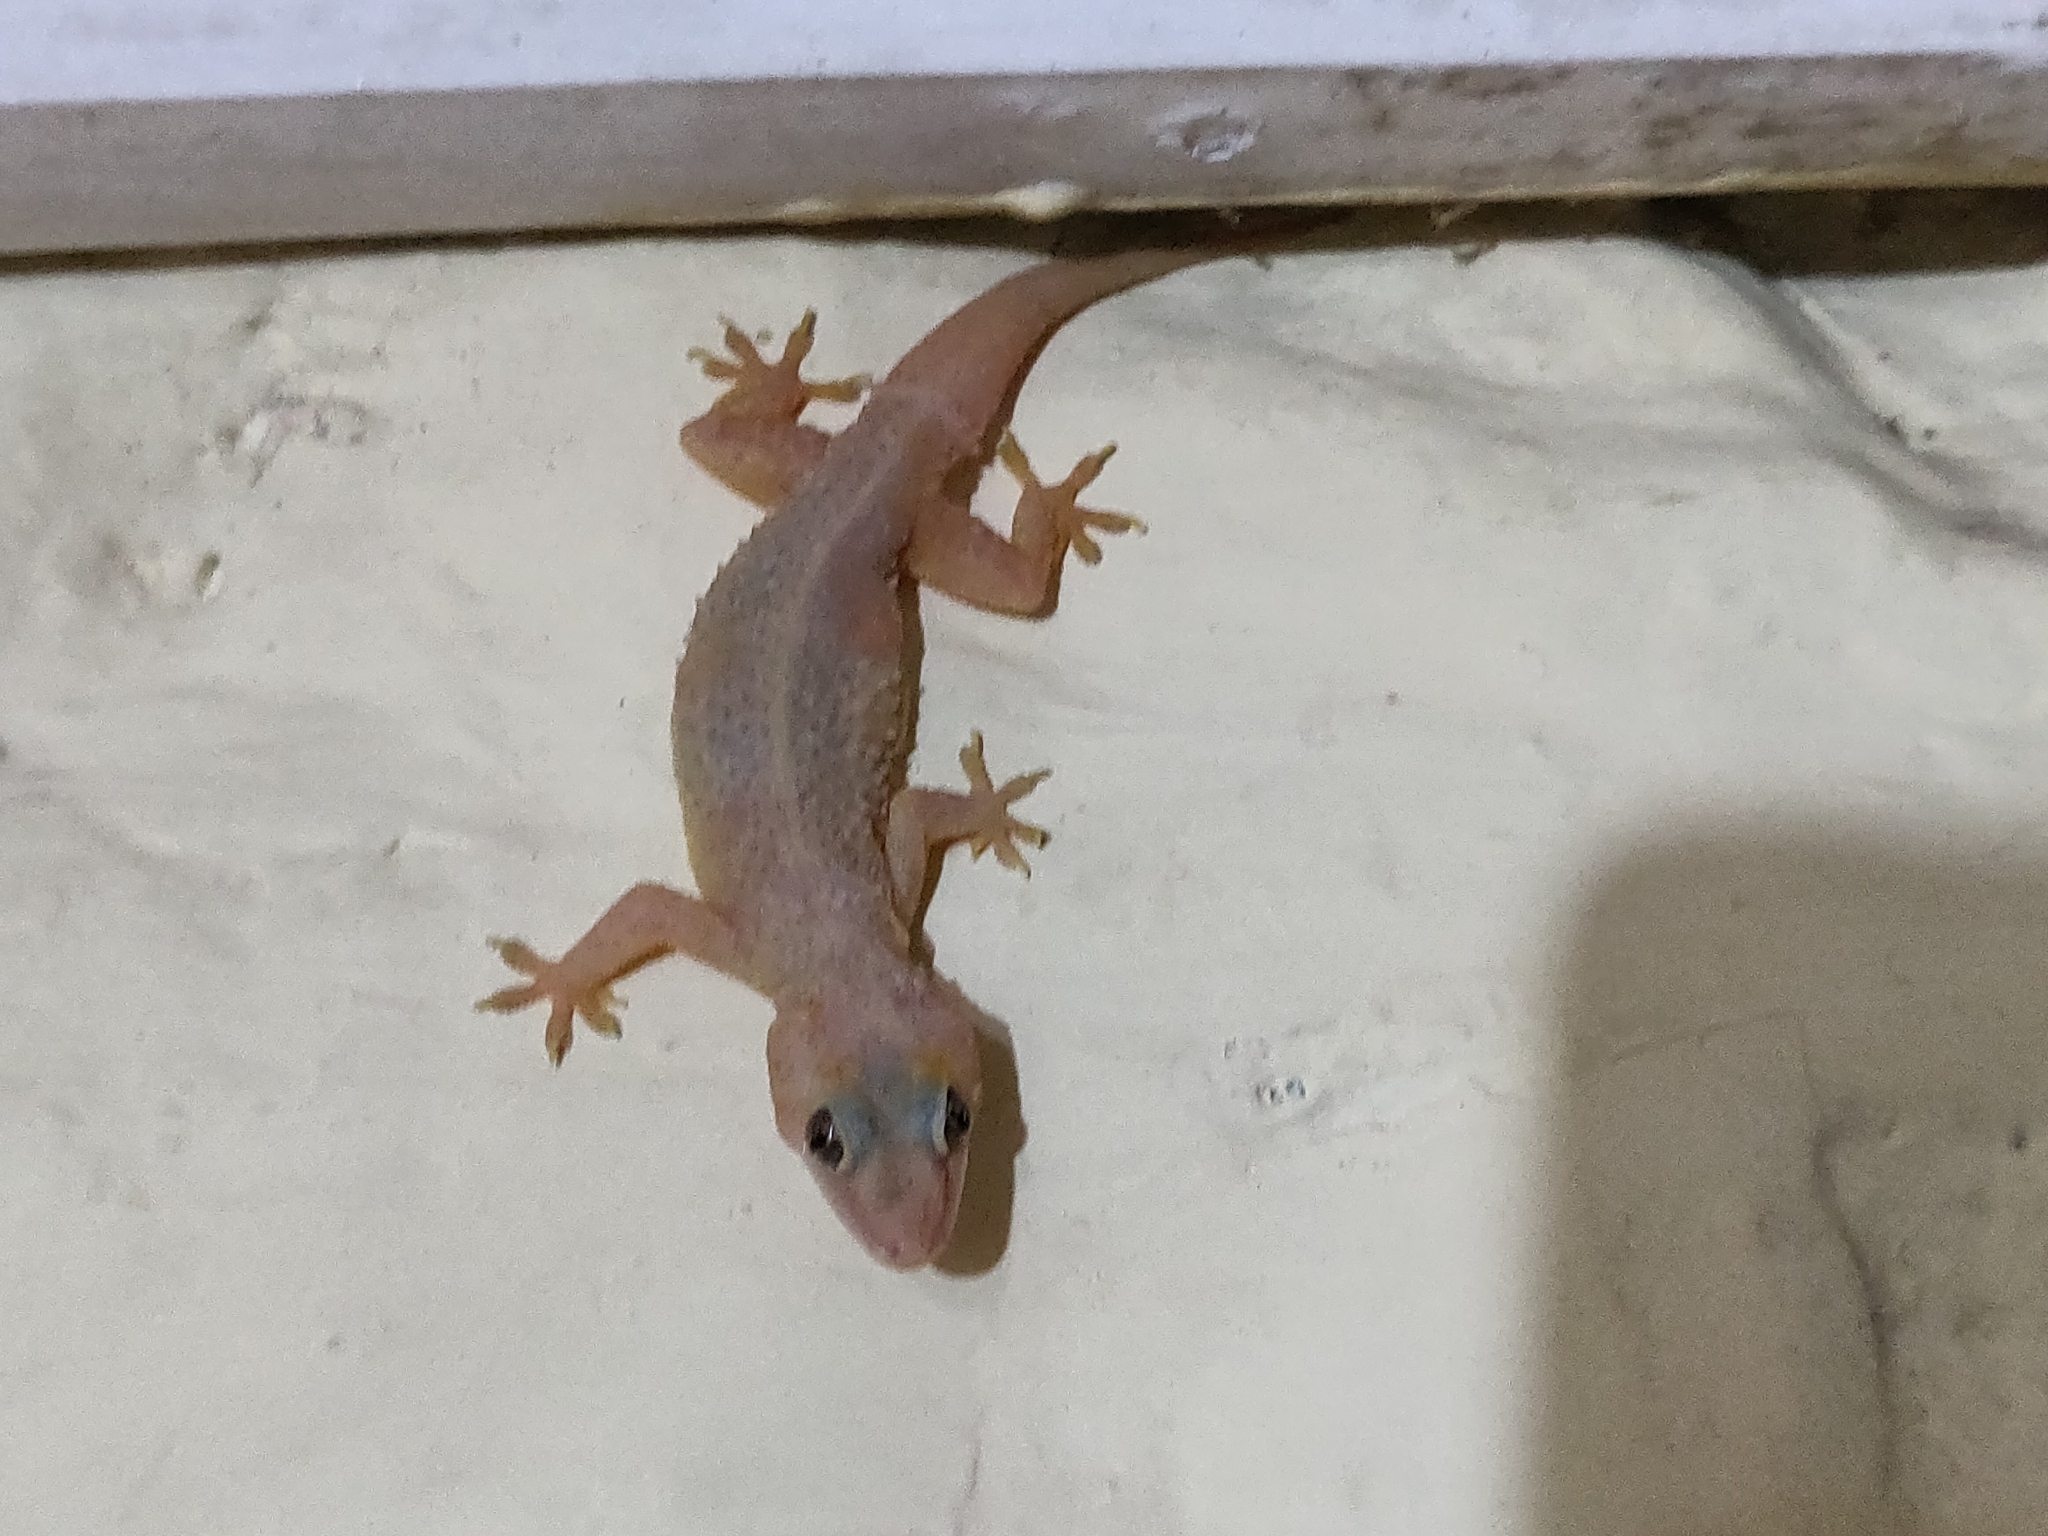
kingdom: Animalia
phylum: Chordata
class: Squamata
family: Gekkonidae
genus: Hemidactylus
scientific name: Hemidactylus frenatus
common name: Common house gecko
